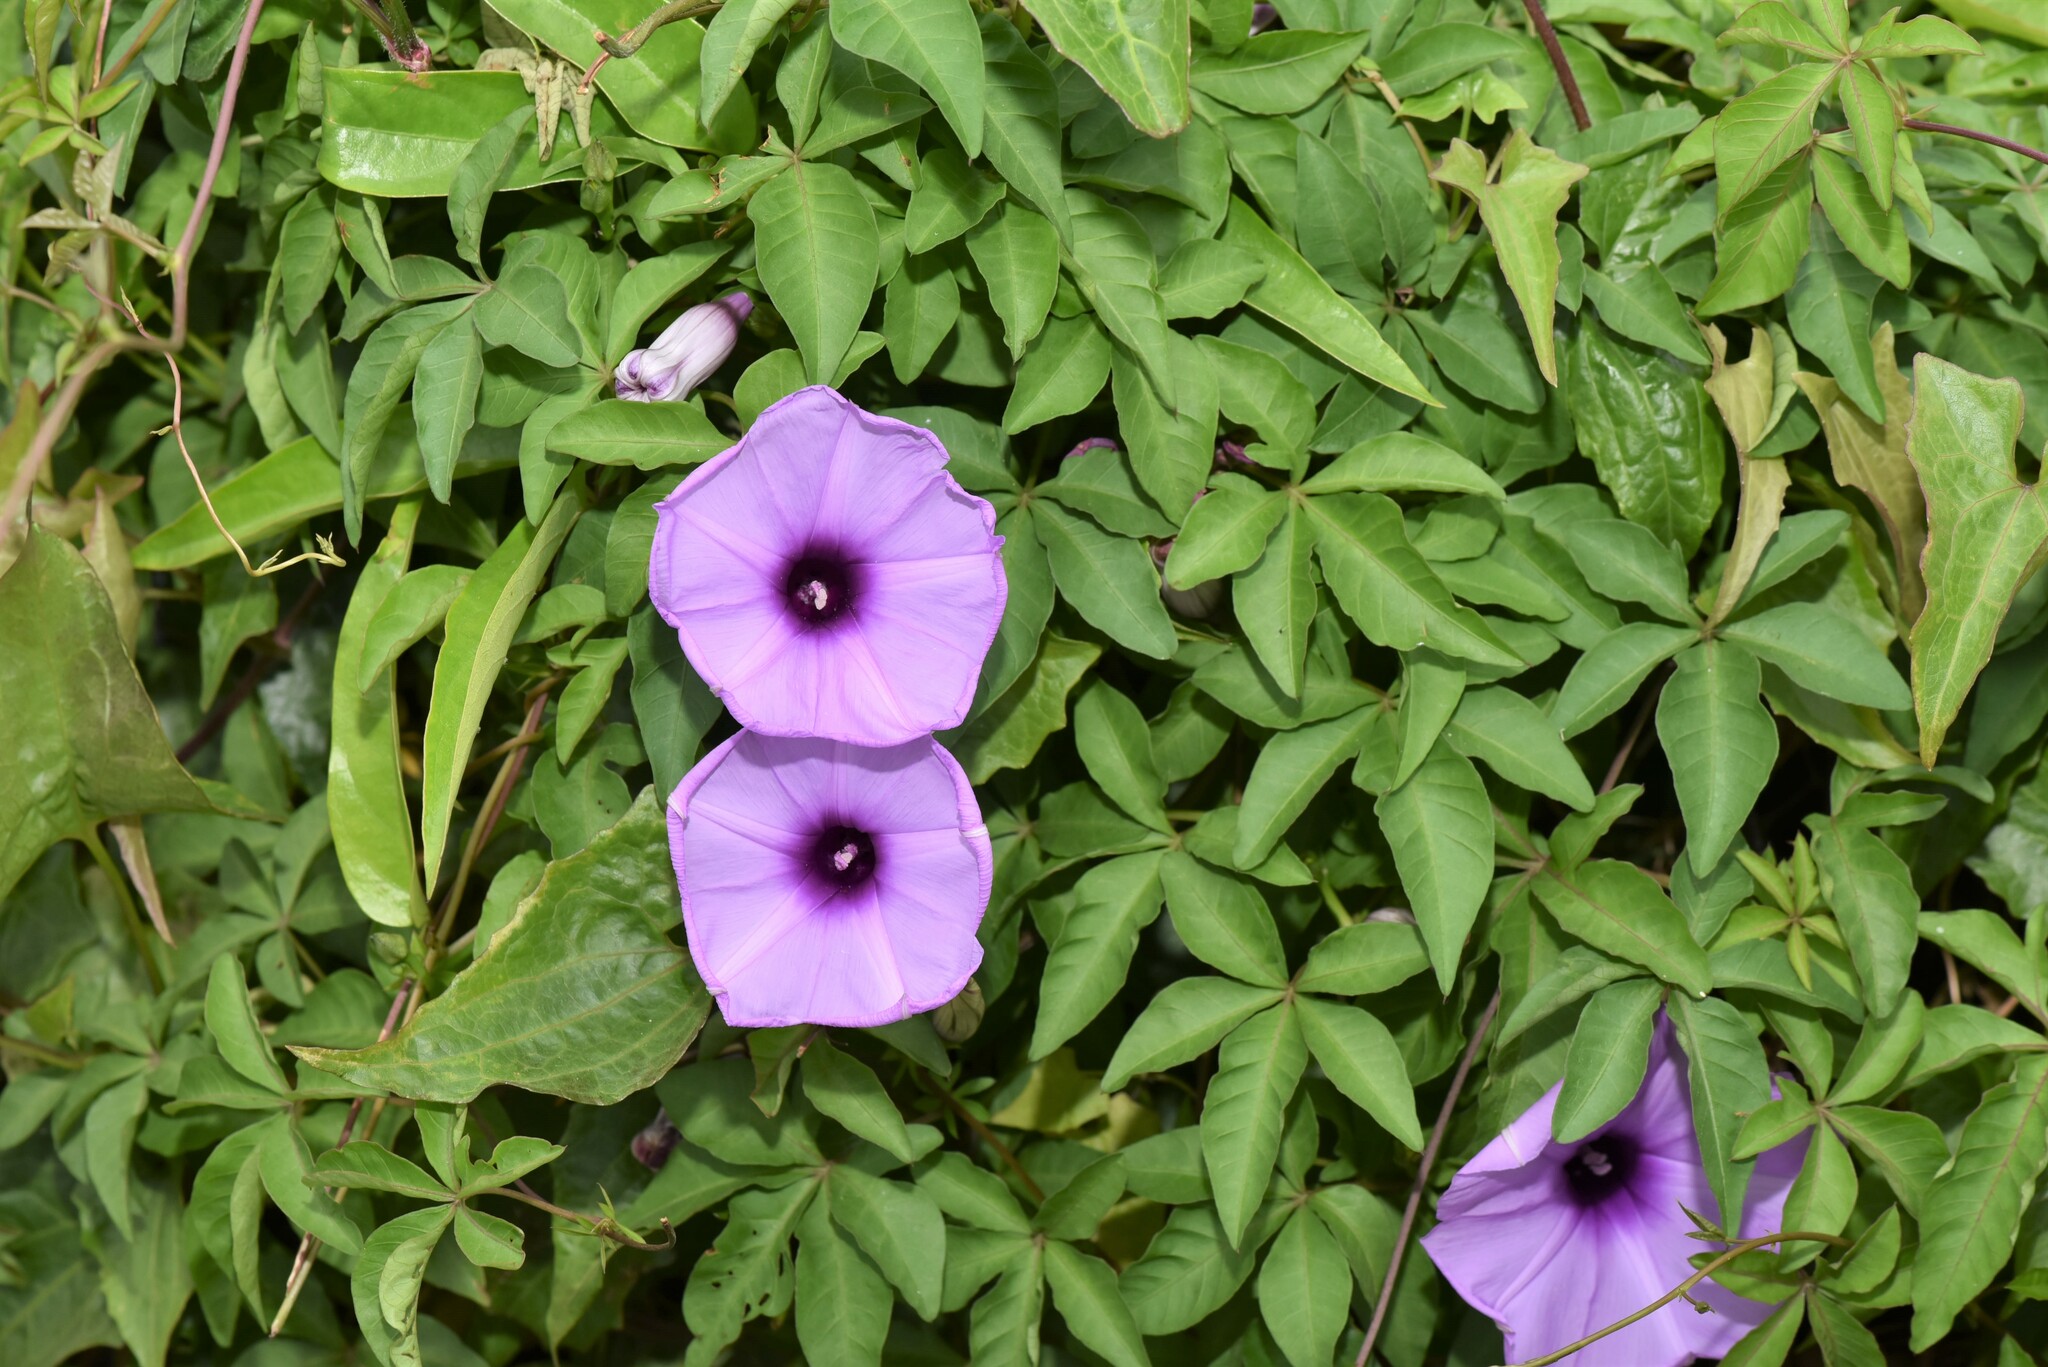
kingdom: Plantae
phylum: Tracheophyta
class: Magnoliopsida
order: Solanales
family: Convolvulaceae
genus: Ipomoea
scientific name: Ipomoea cairica
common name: Mile a minute vine
